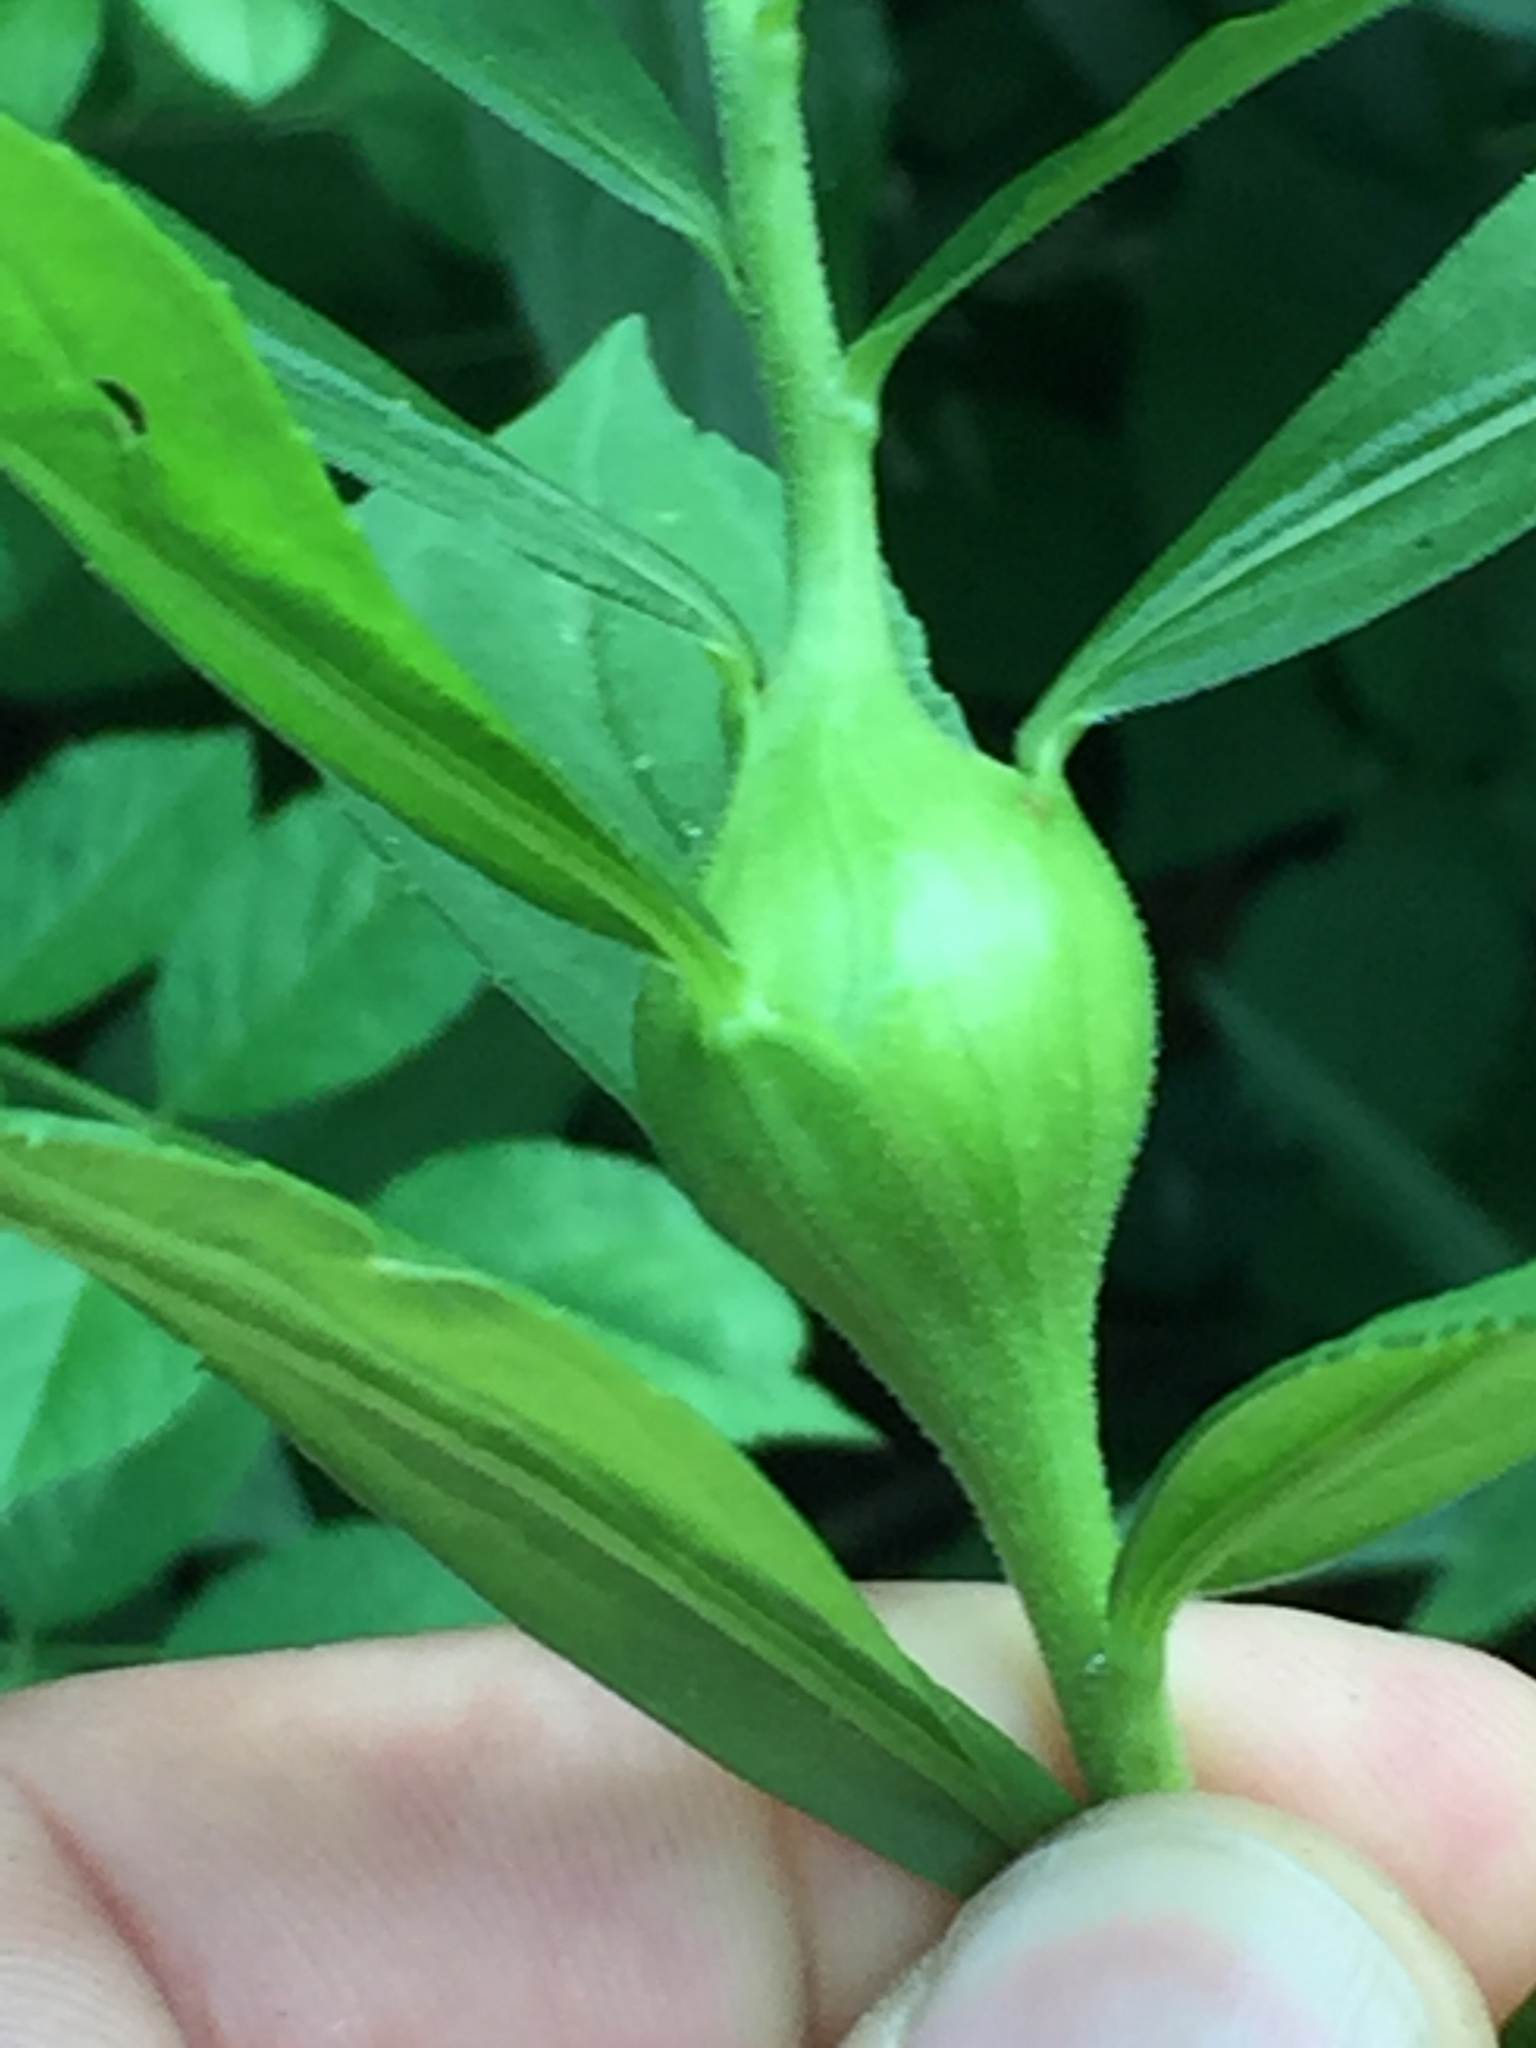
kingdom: Animalia
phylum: Arthropoda
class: Insecta
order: Diptera
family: Tephritidae
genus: Eurosta
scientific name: Eurosta solidaginis
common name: Goldenrod gall fly
